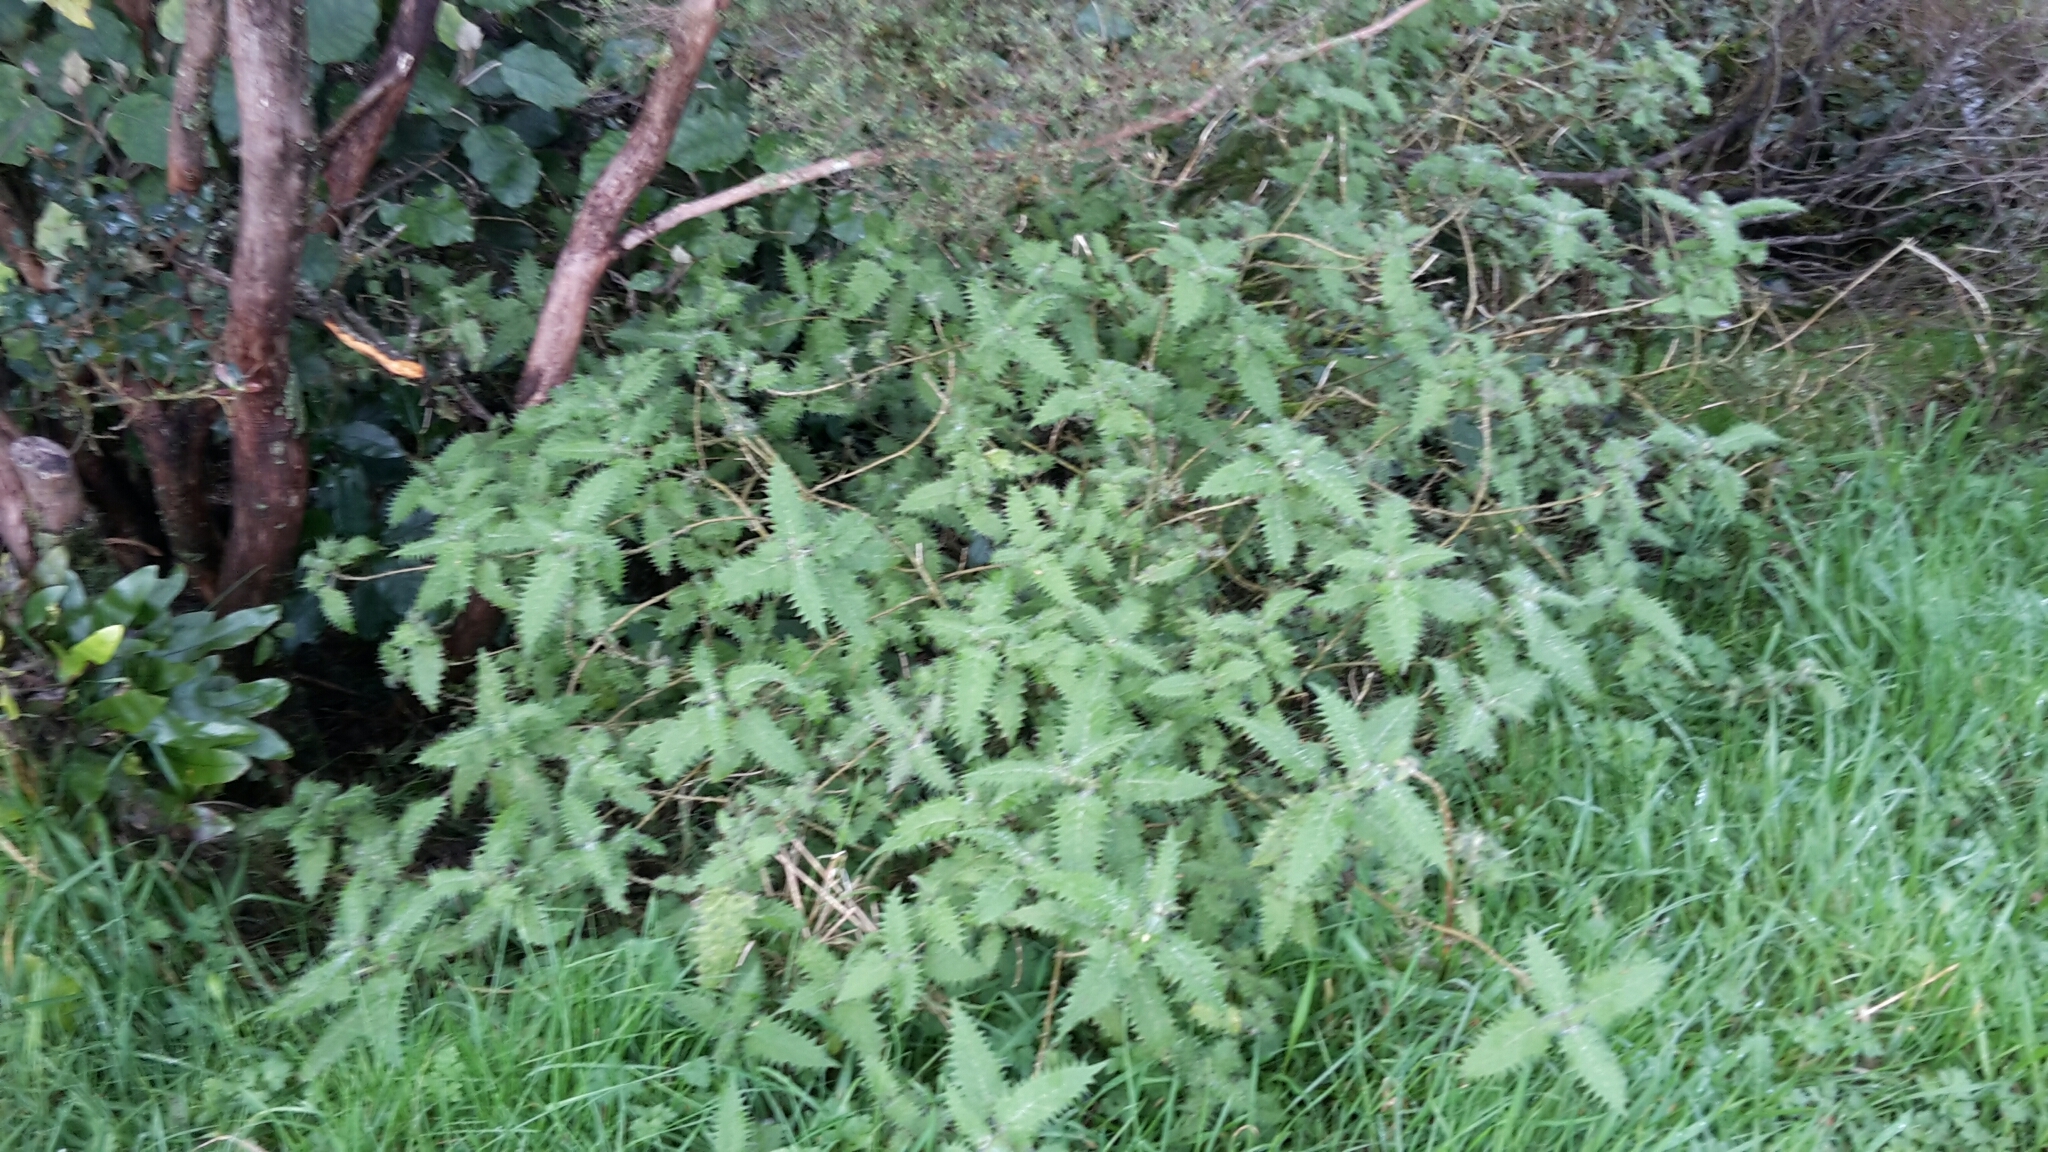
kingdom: Plantae
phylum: Tracheophyta
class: Magnoliopsida
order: Rosales
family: Urticaceae
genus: Urtica
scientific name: Urtica ferox
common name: Tree nettle
